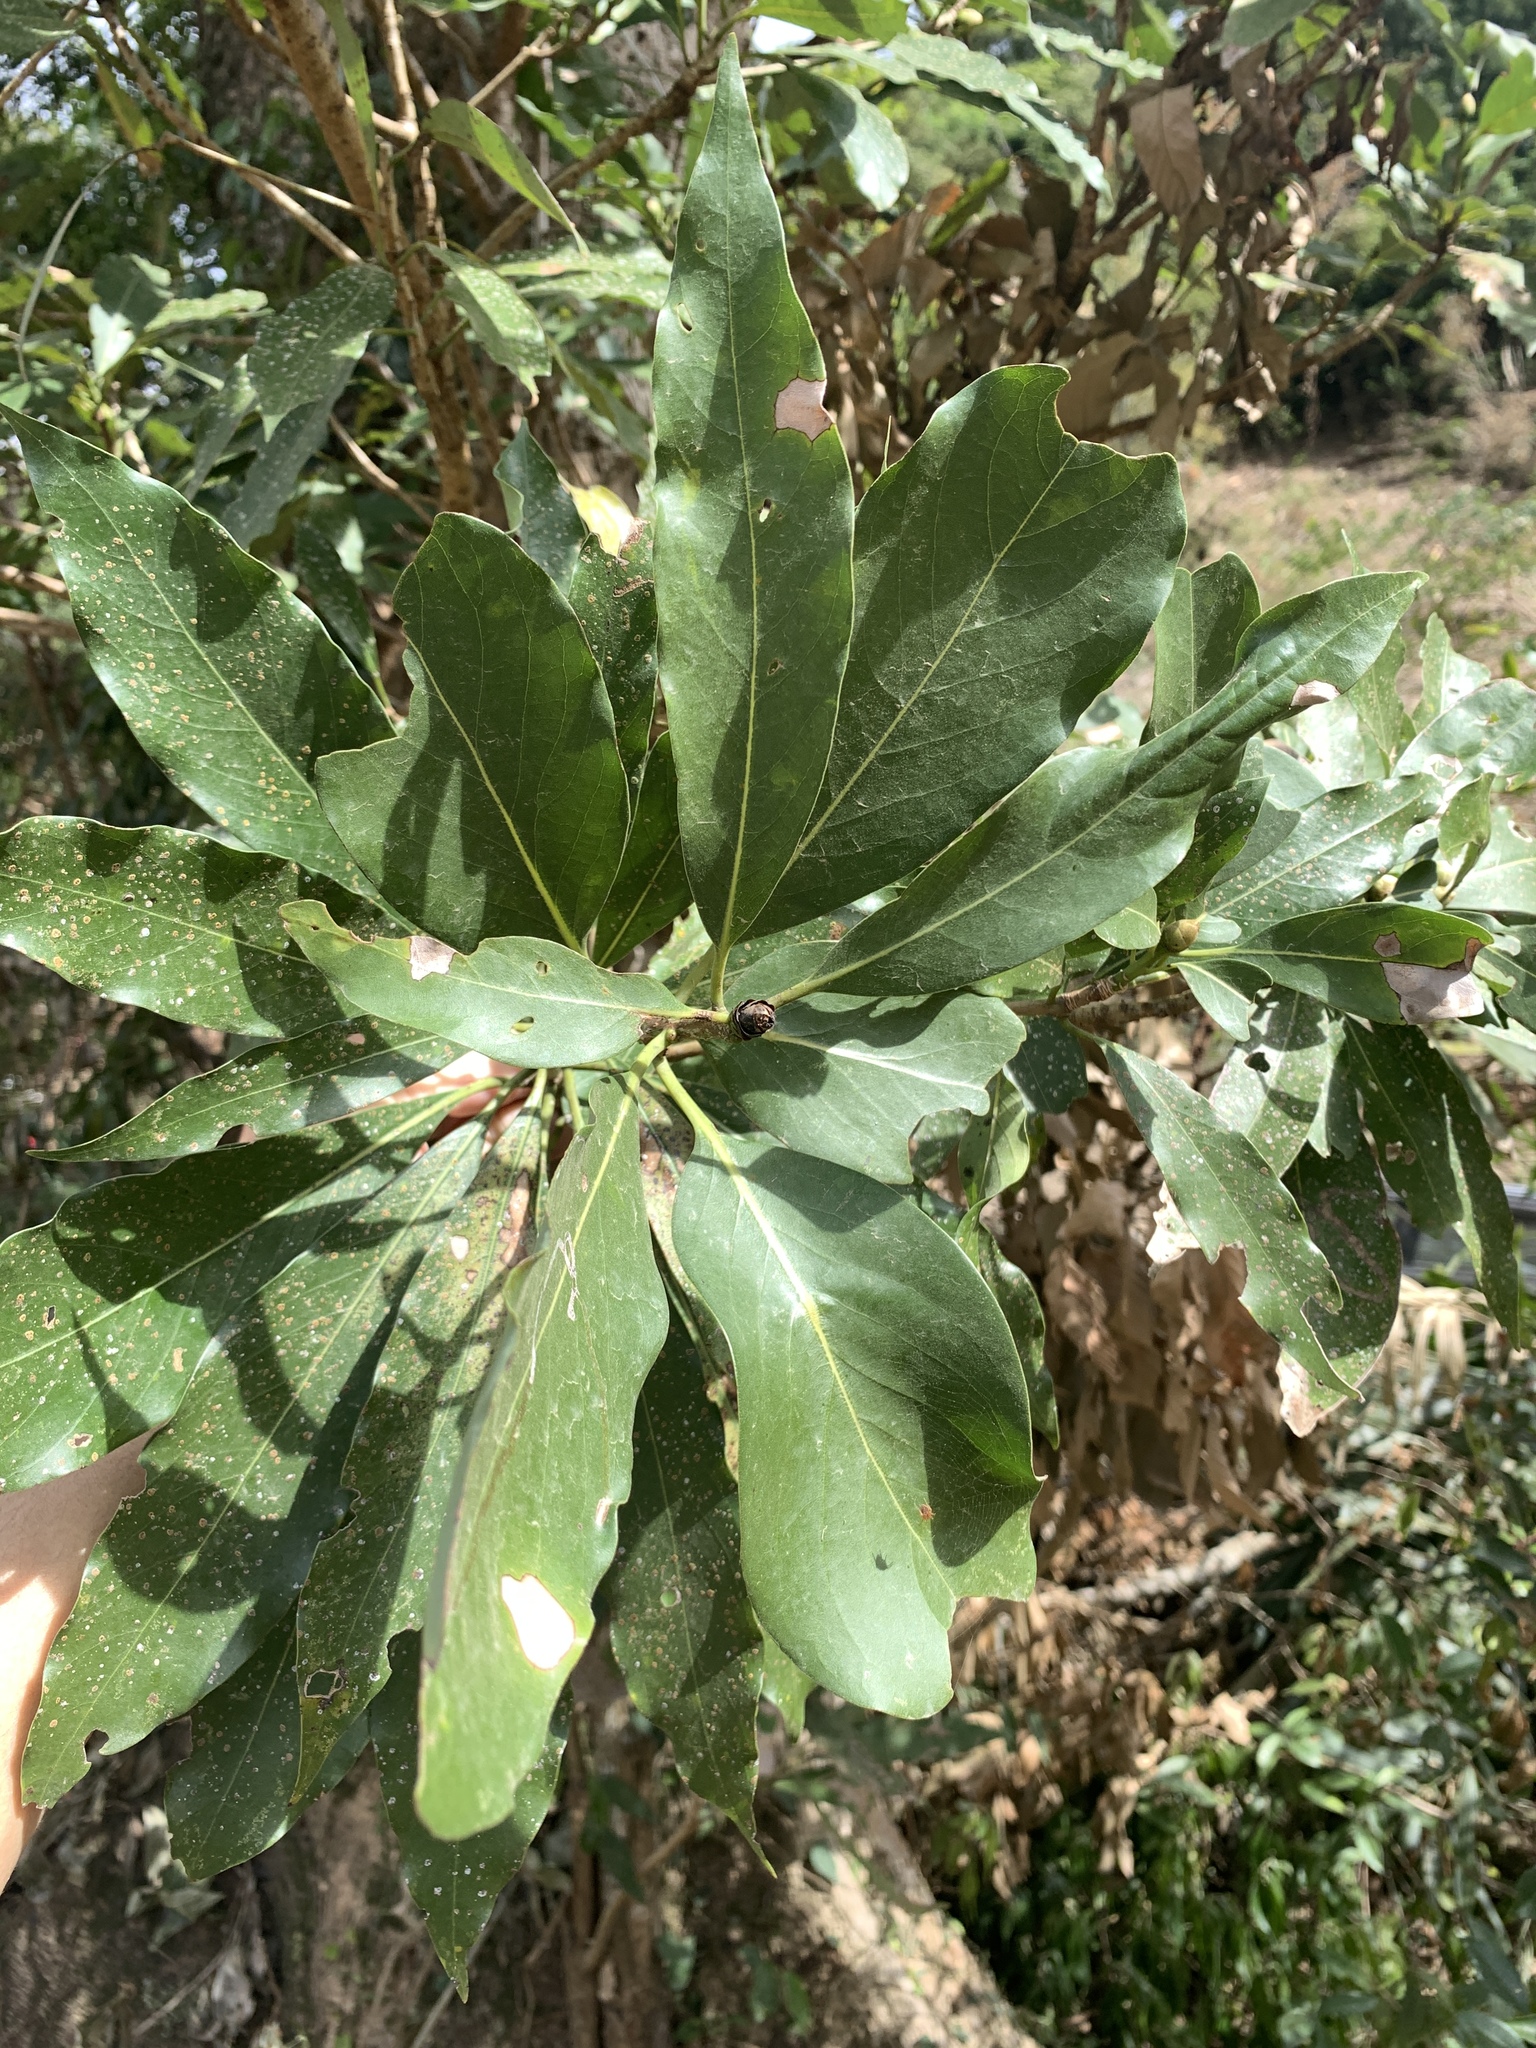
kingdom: Plantae
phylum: Tracheophyta
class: Magnoliopsida
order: Laurales
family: Lauraceae
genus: Machilus
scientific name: Machilus japonica
